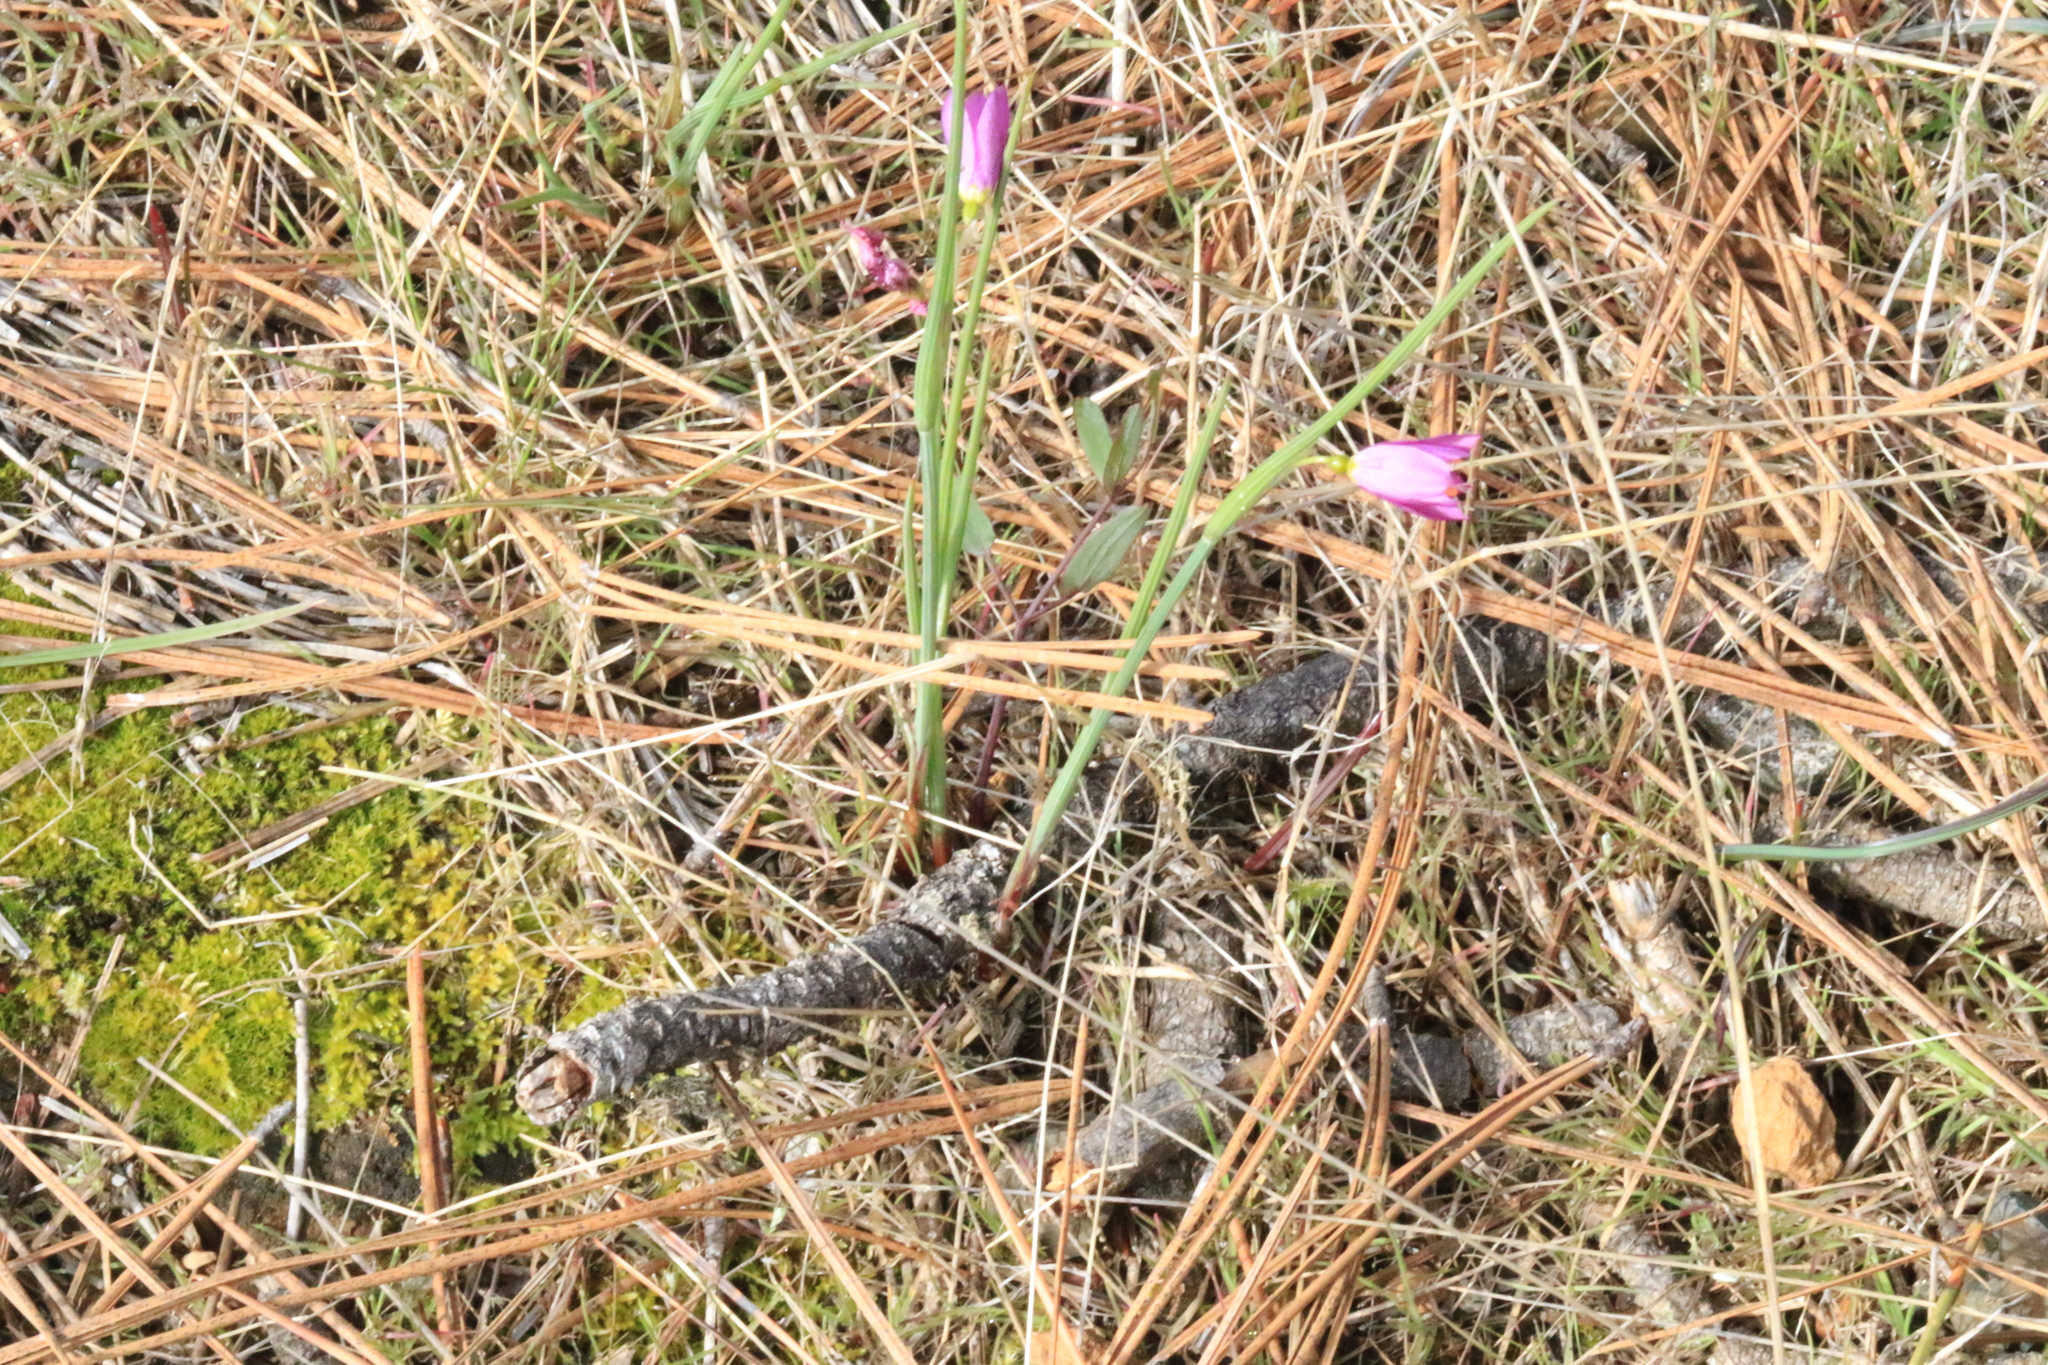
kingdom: Plantae
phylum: Tracheophyta
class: Liliopsida
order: Asparagales
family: Iridaceae
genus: Olsynium
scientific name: Olsynium douglasii
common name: Douglas' grasswidow
